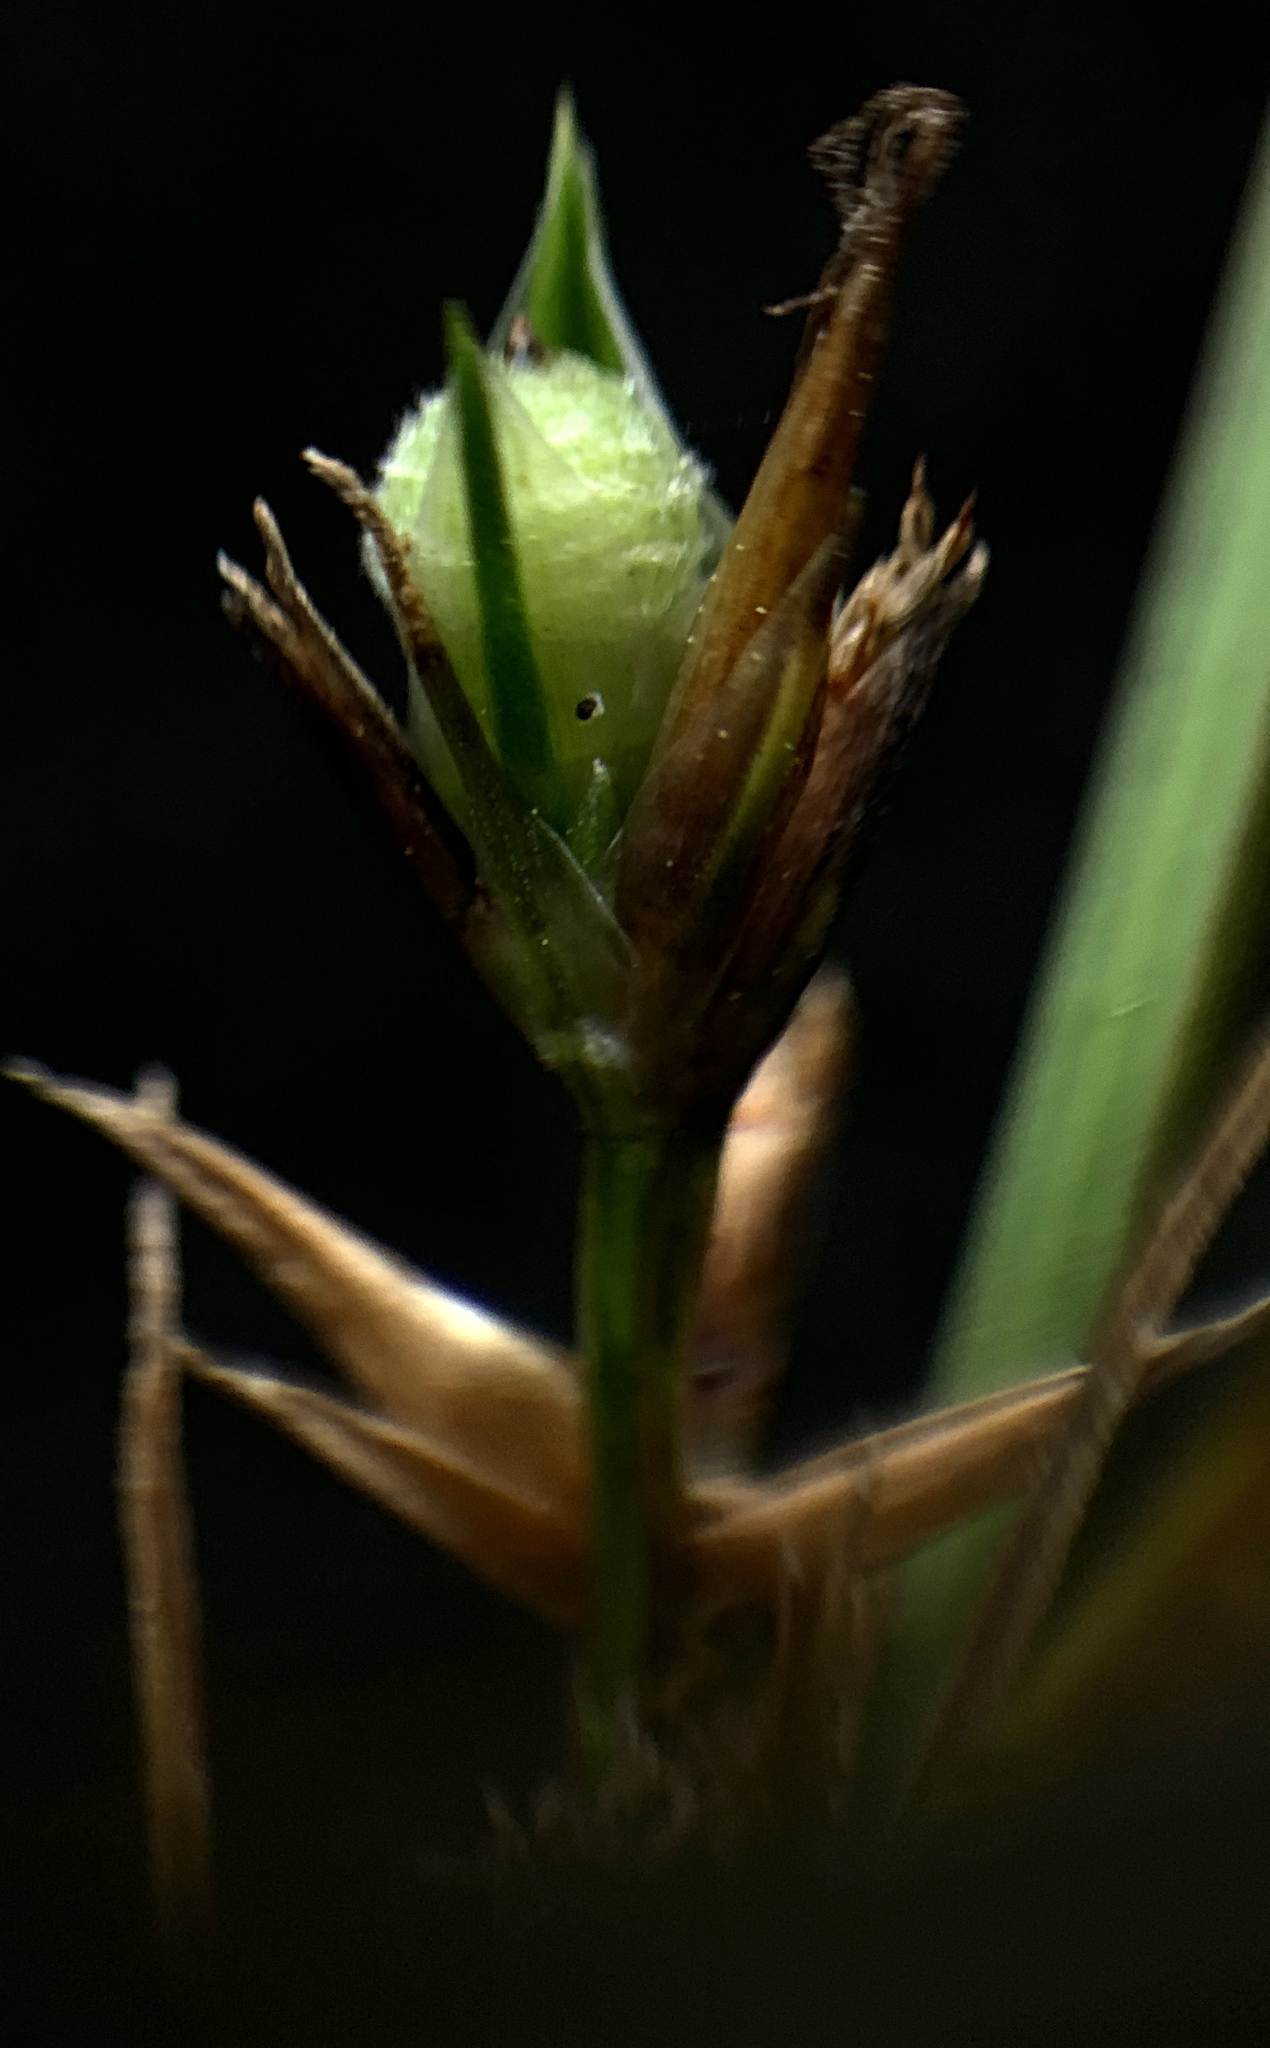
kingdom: Plantae
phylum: Tracheophyta
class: Liliopsida
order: Poales
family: Cyperaceae
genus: Scleria
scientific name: Scleria muehlenbergii
